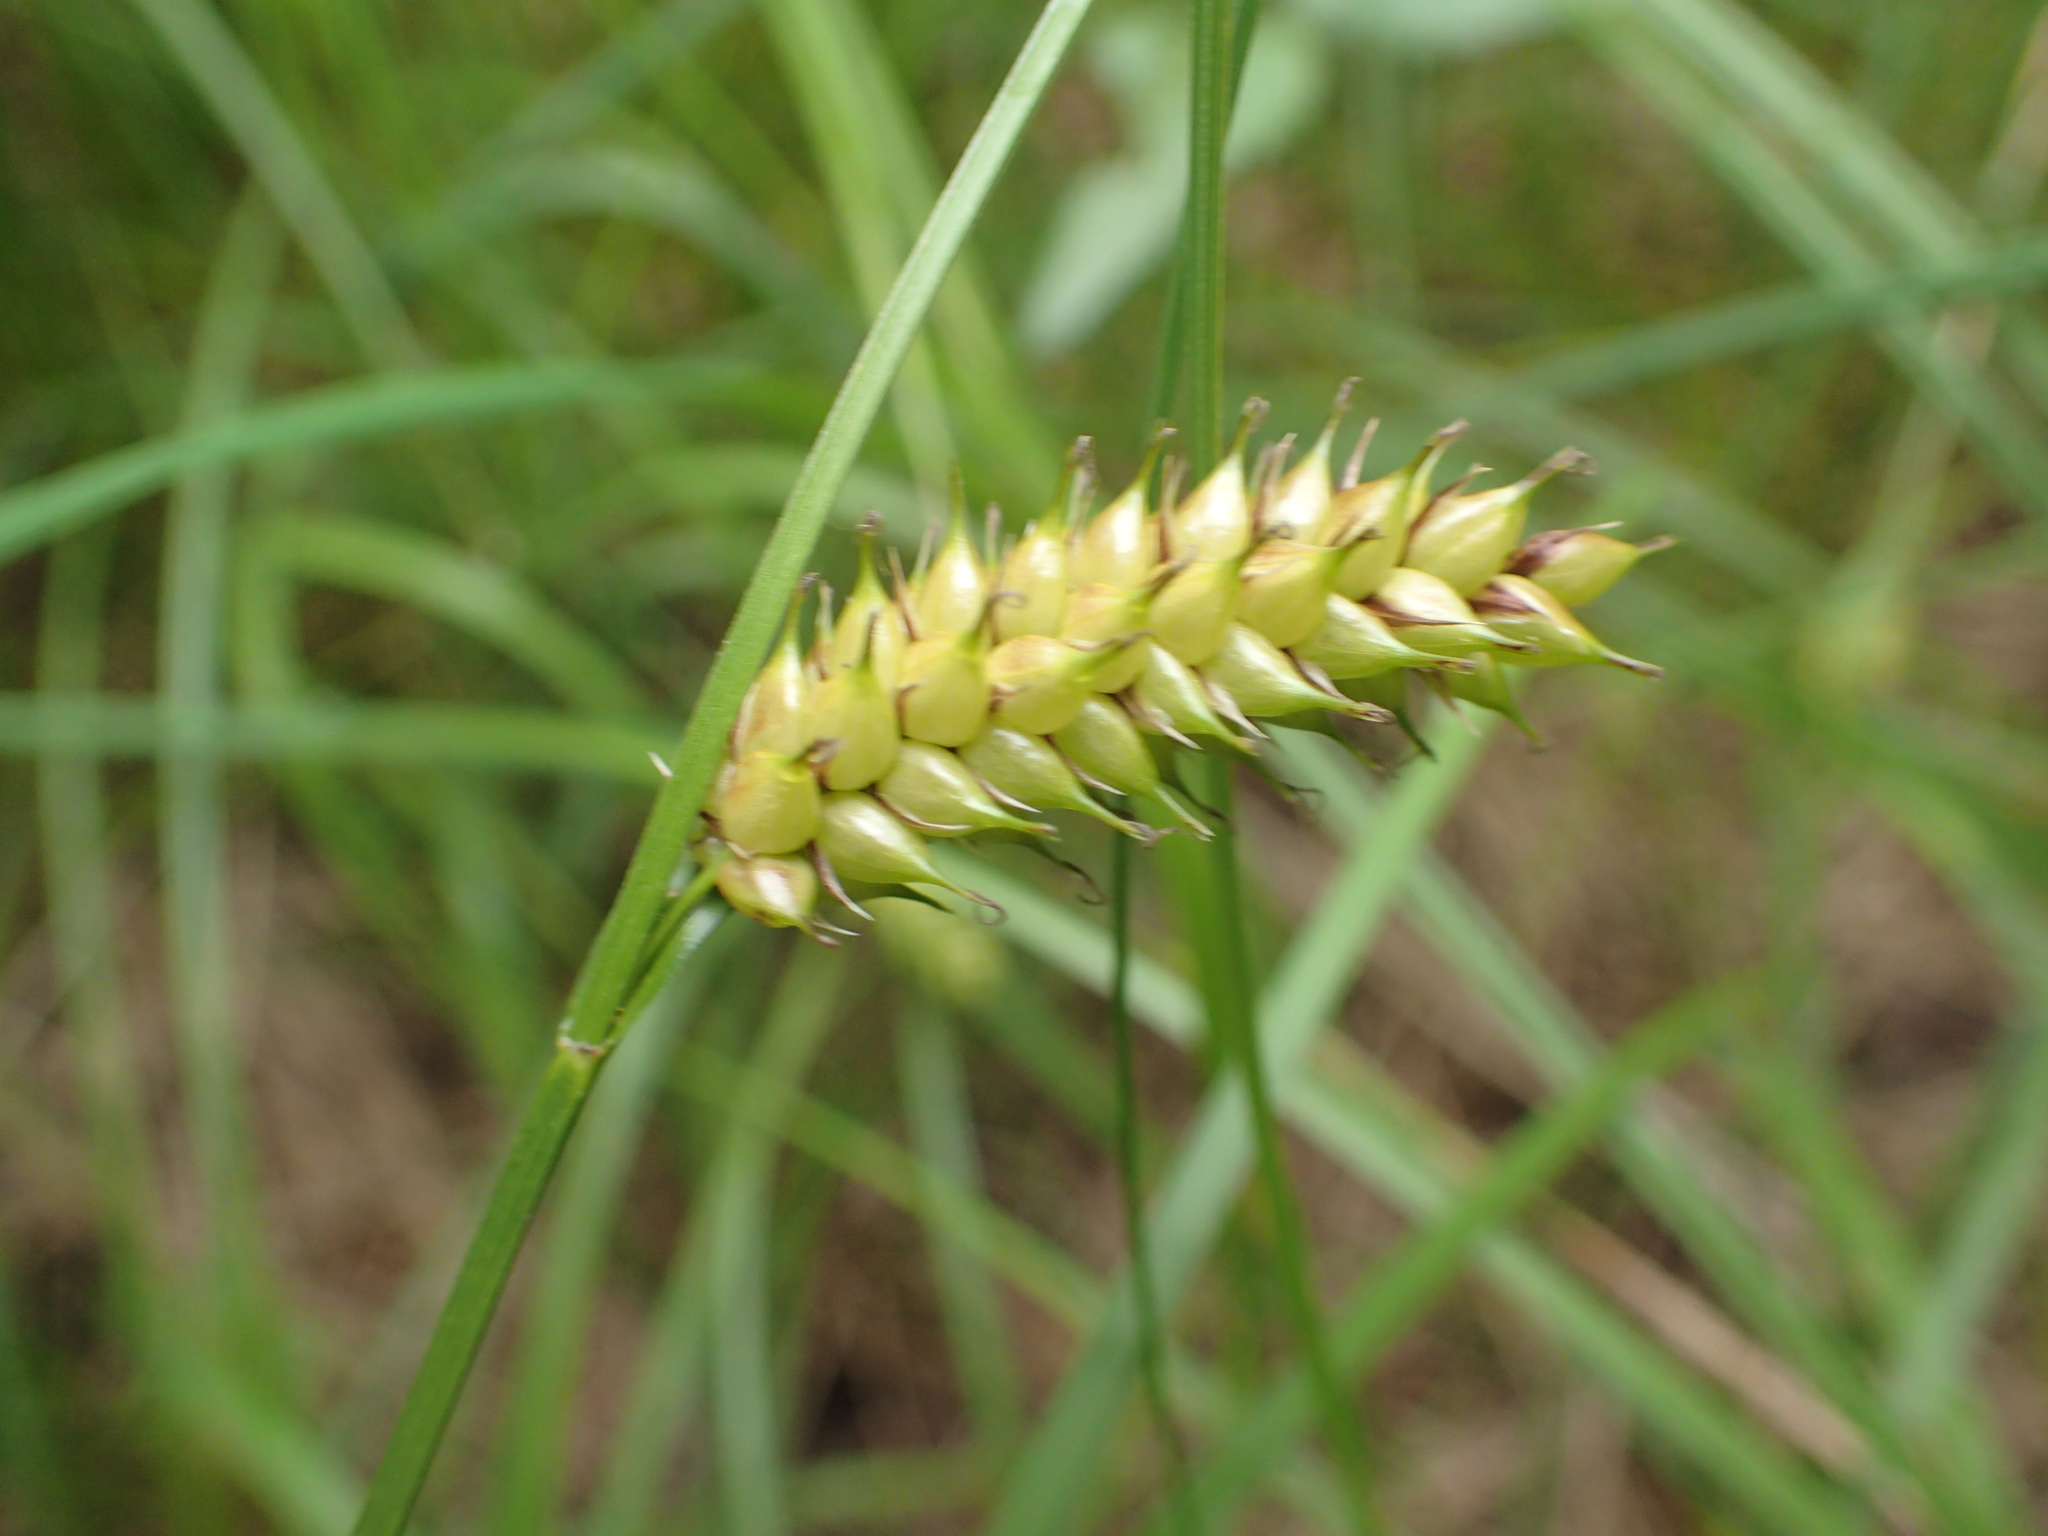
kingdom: Plantae
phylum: Tracheophyta
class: Liliopsida
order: Poales
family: Cyperaceae
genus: Carex
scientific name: Carex vesicaria
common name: Bladder-sedge
